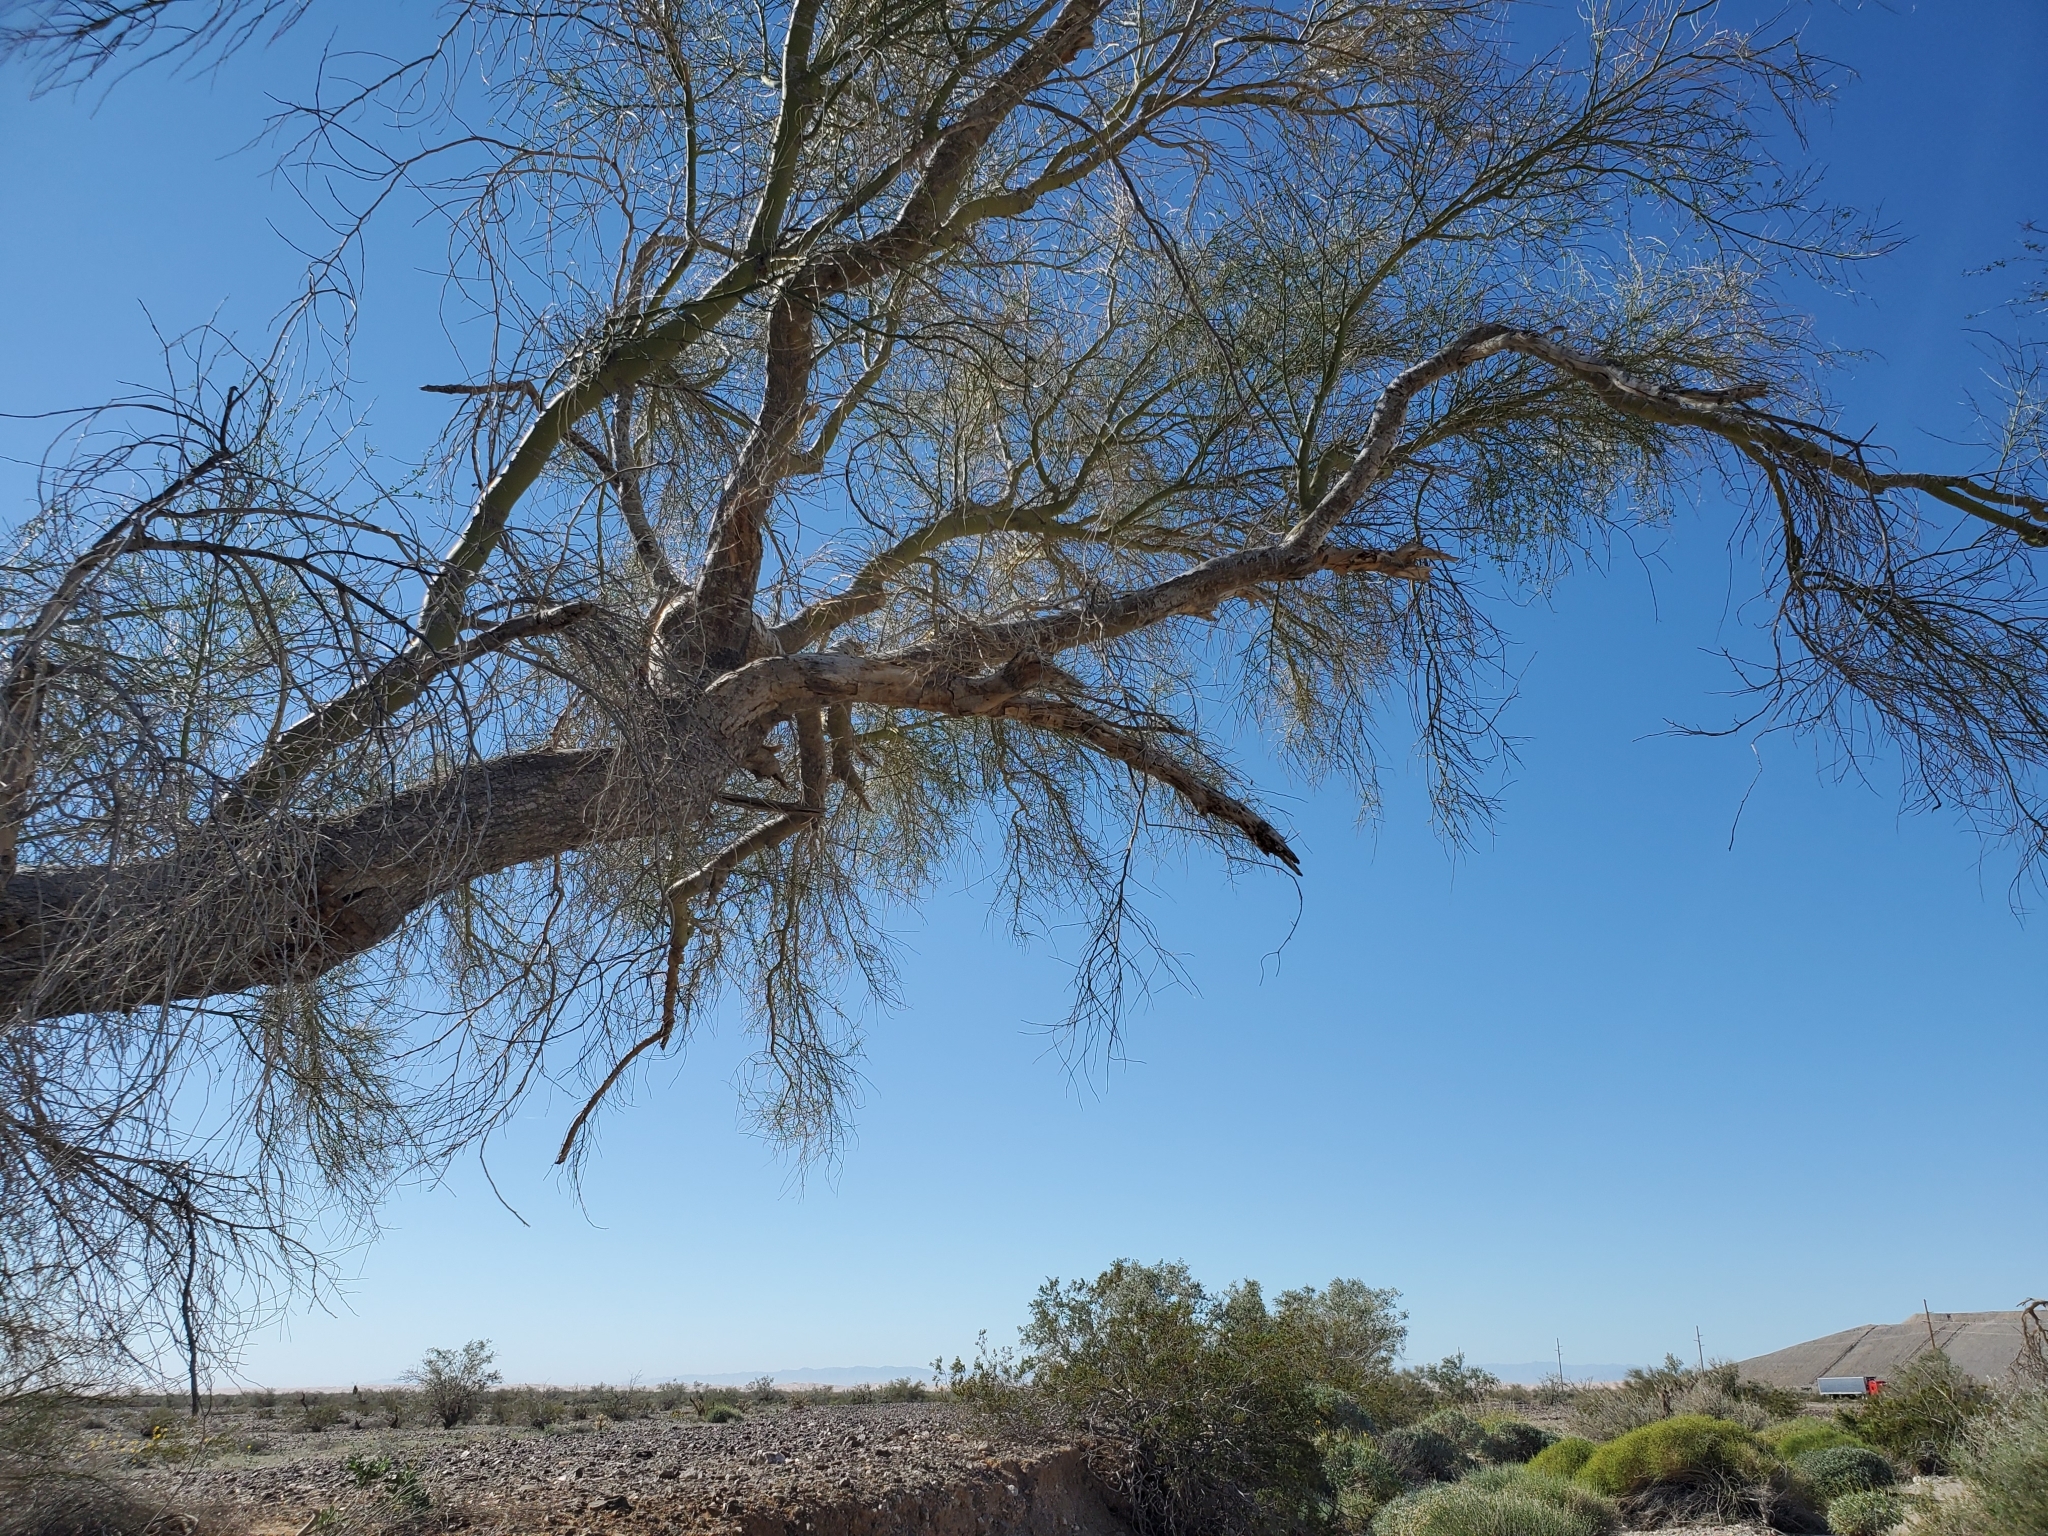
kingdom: Plantae
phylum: Tracheophyta
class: Magnoliopsida
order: Fabales
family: Fabaceae
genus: Parkinsonia
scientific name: Parkinsonia florida
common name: Blue paloverde
